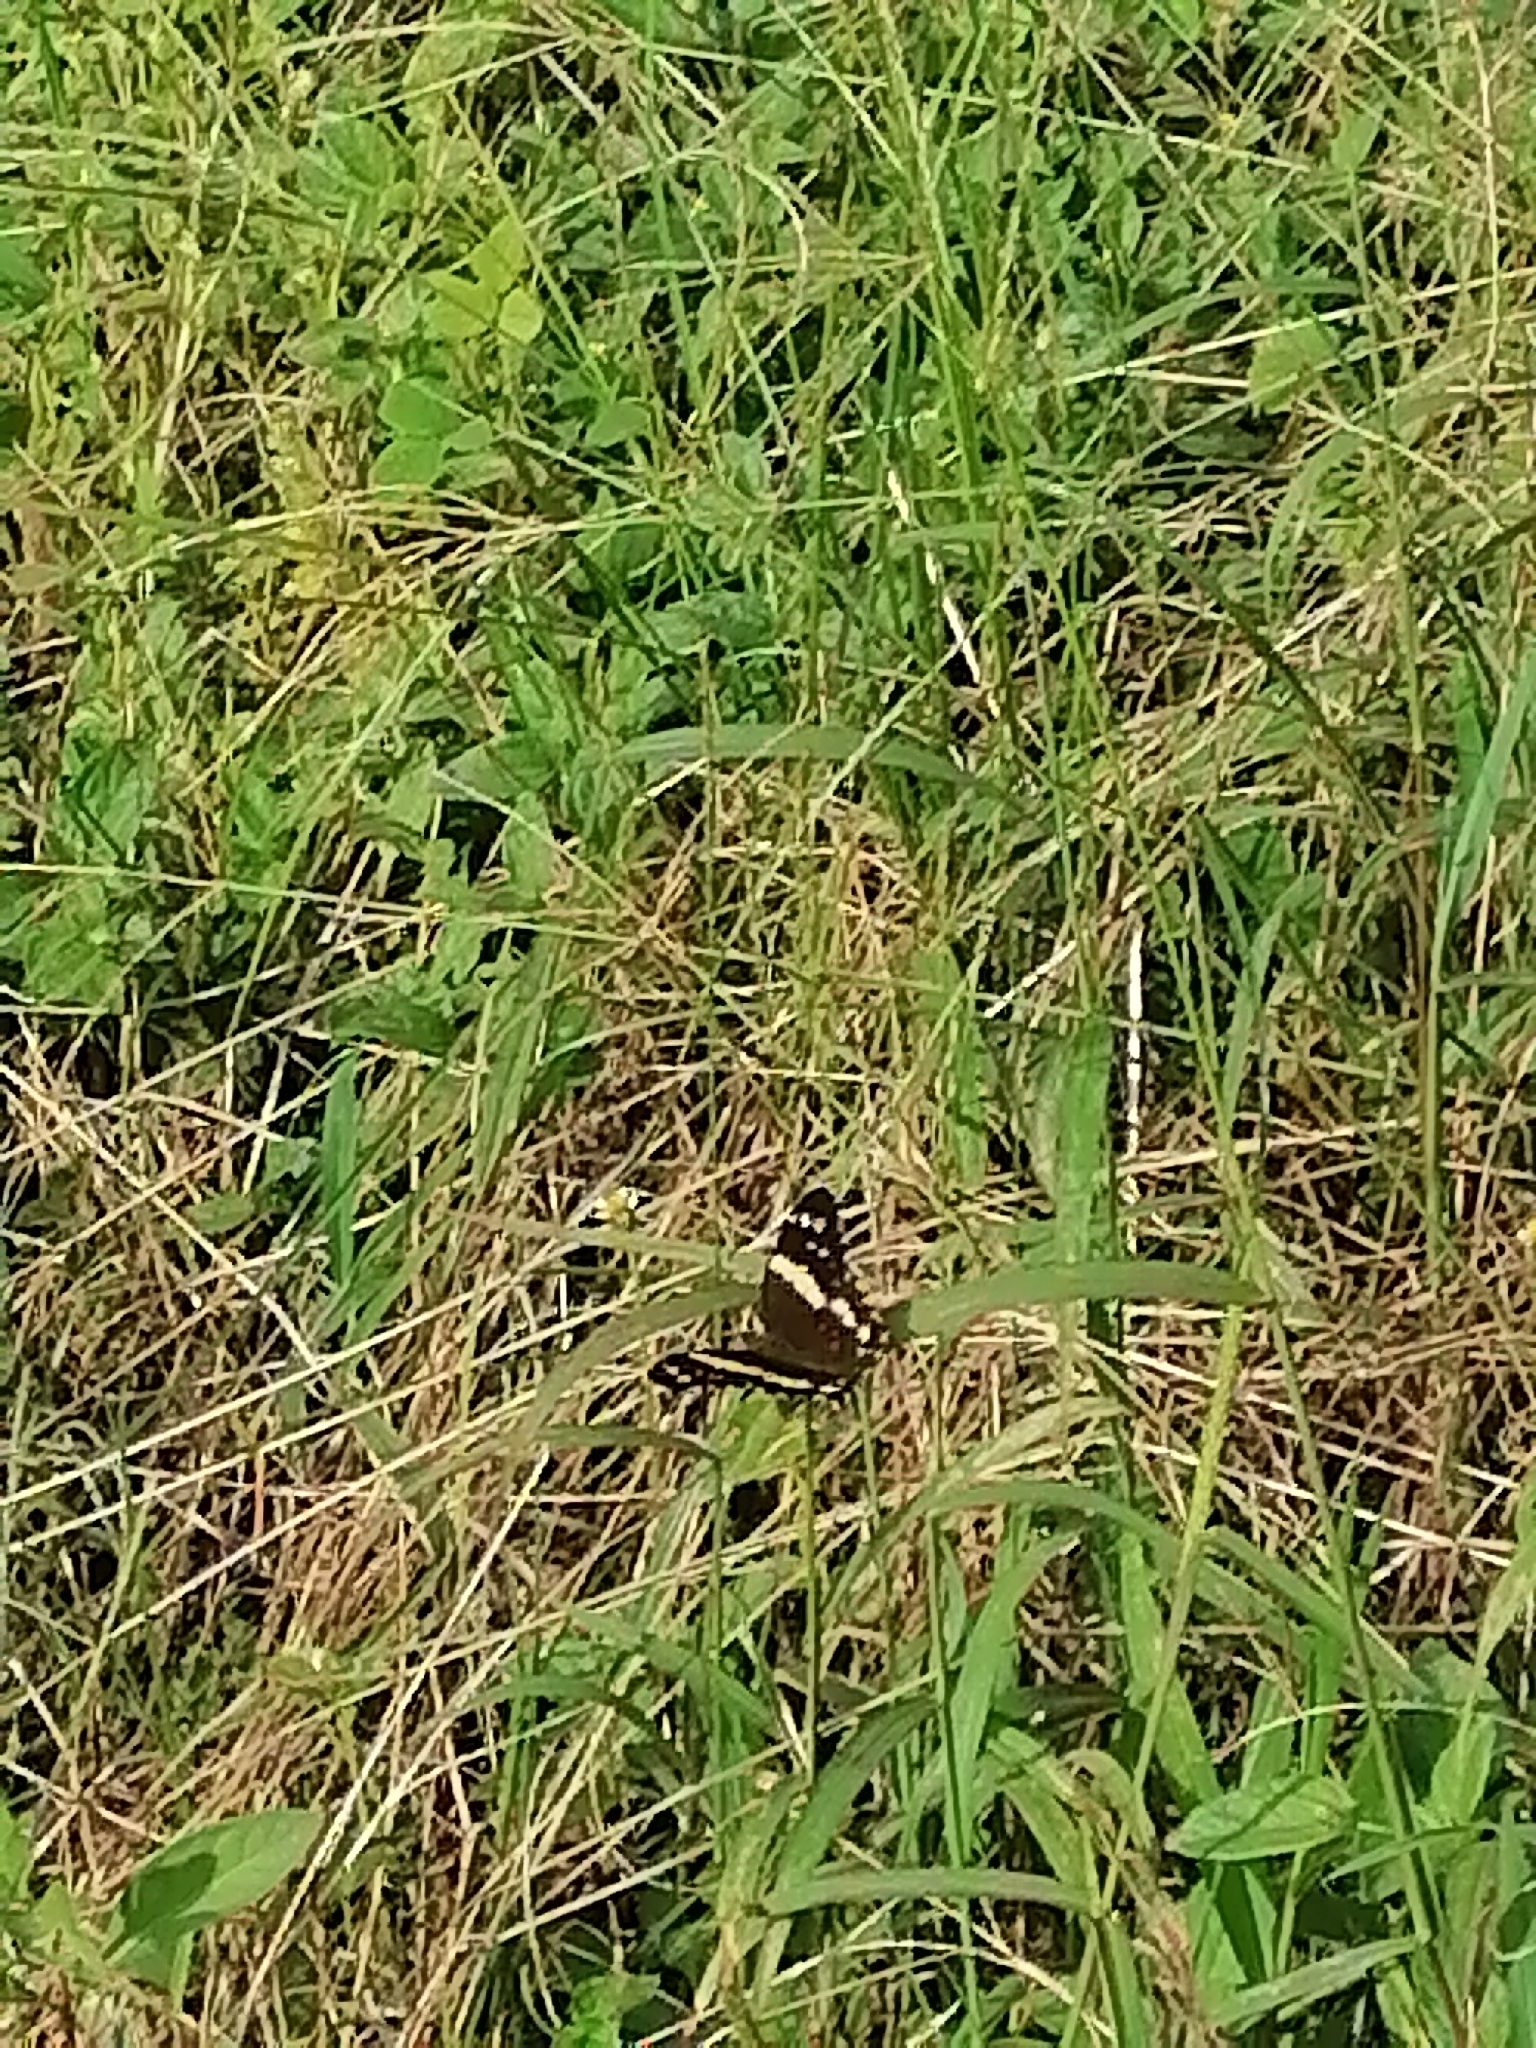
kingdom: Animalia
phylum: Arthropoda
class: Insecta
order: Lepidoptera
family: Nymphalidae
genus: Anartia
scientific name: Anartia fatima
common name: Banded peacock
